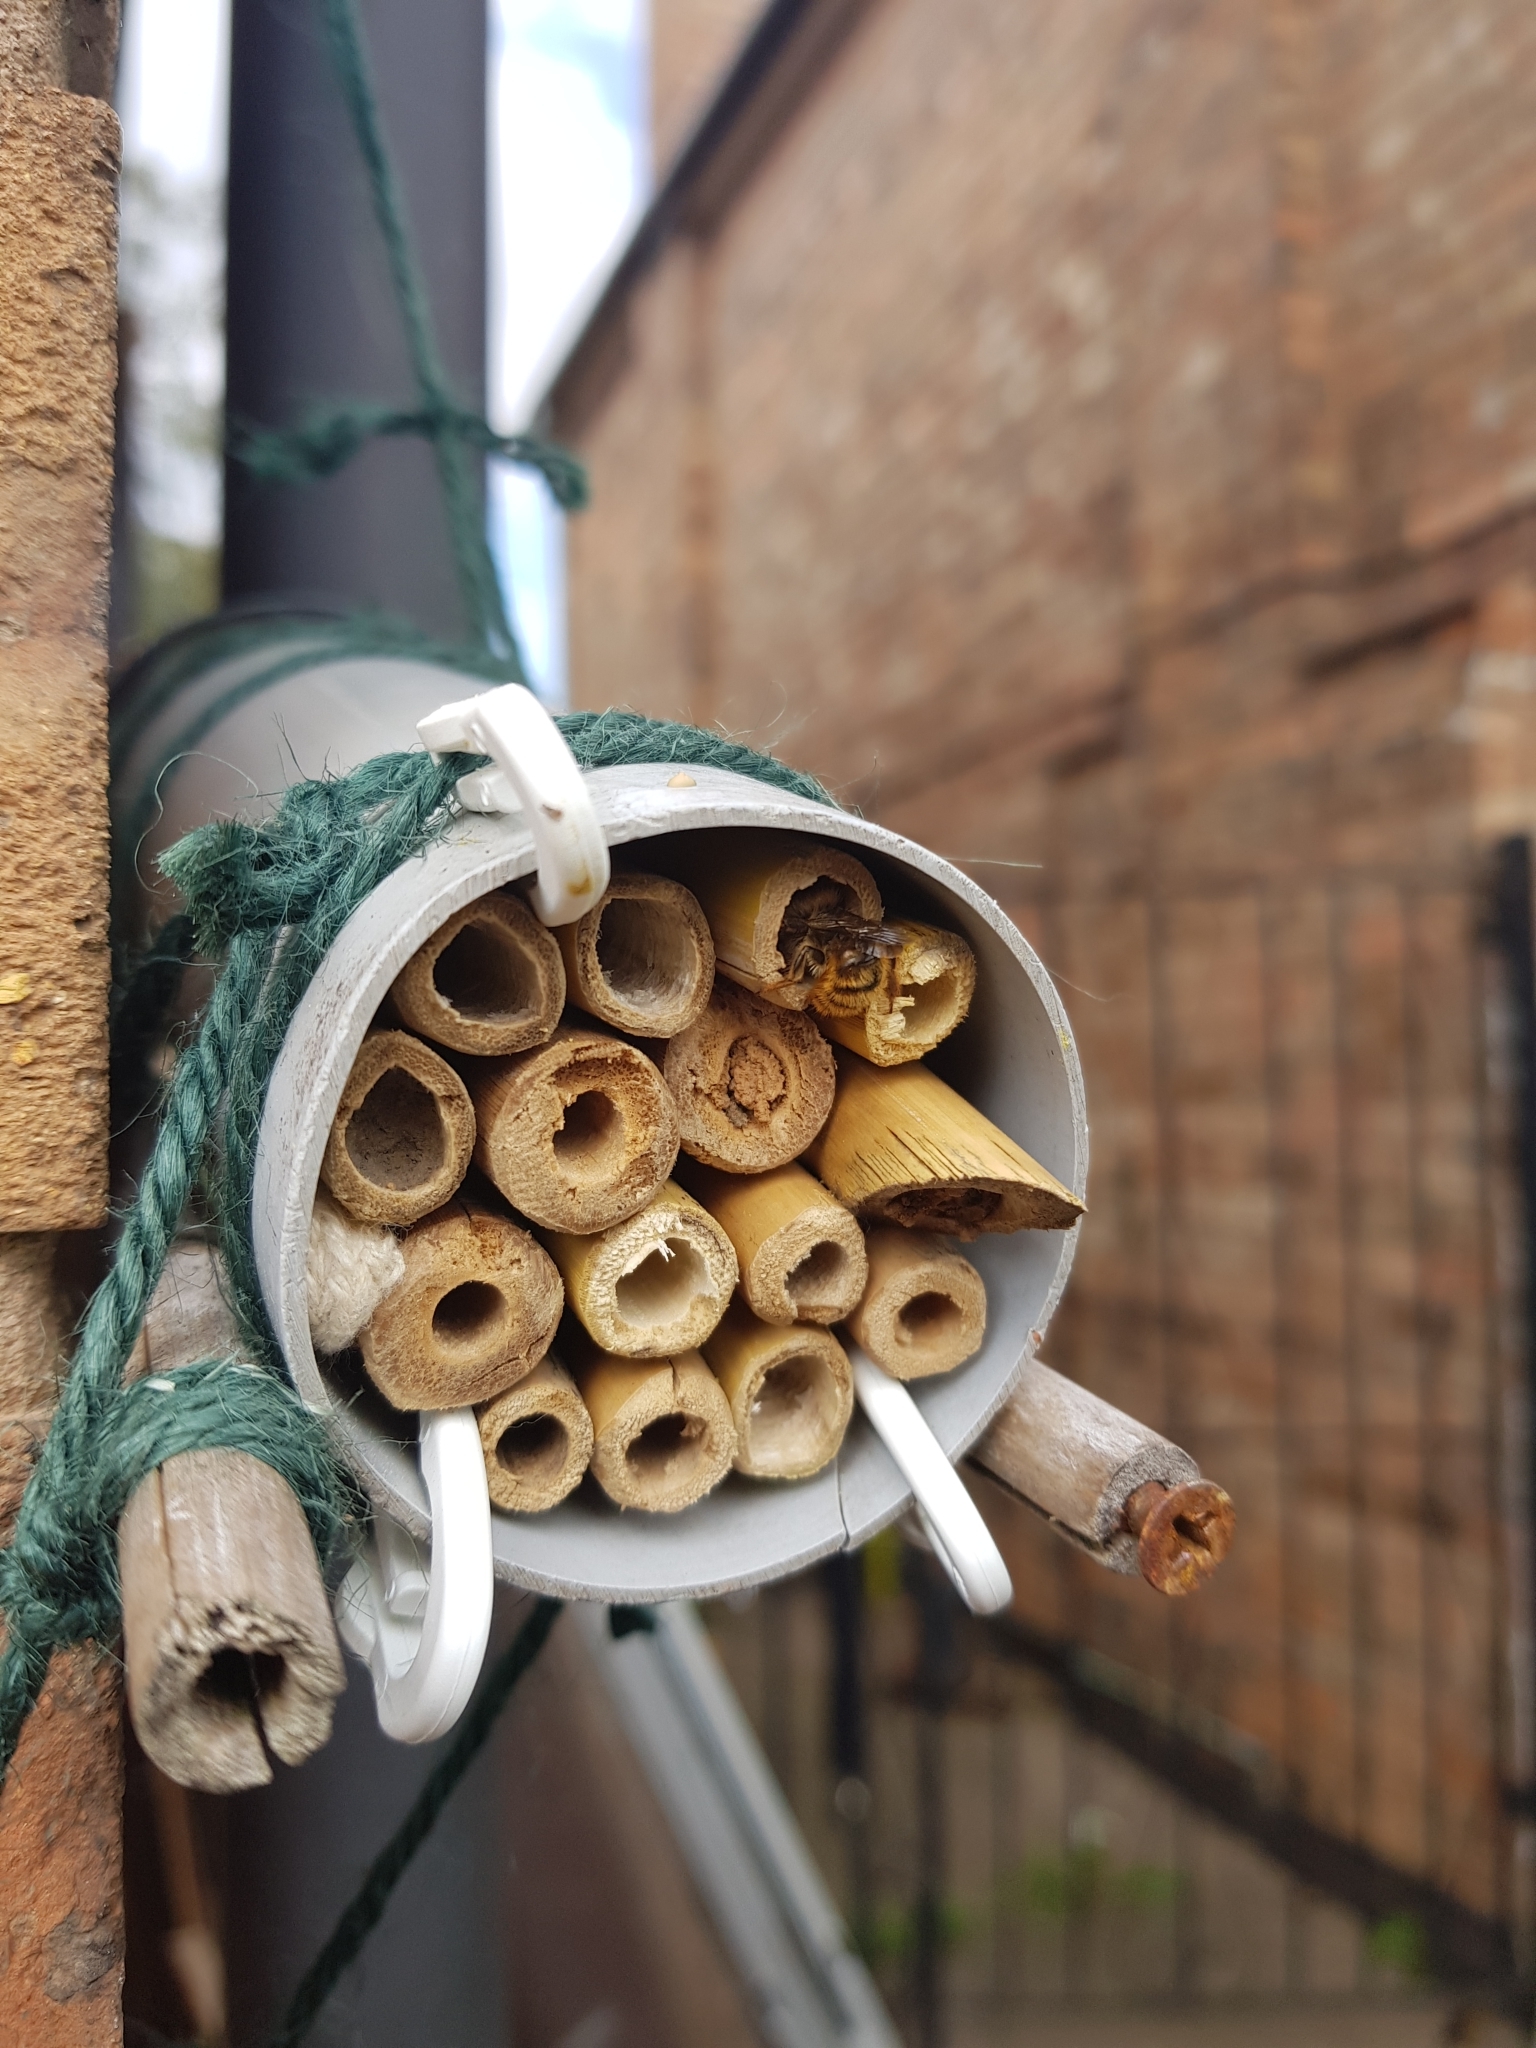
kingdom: Animalia
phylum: Arthropoda
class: Insecta
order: Hymenoptera
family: Megachilidae
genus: Osmia
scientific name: Osmia bicornis
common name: Red mason bee
